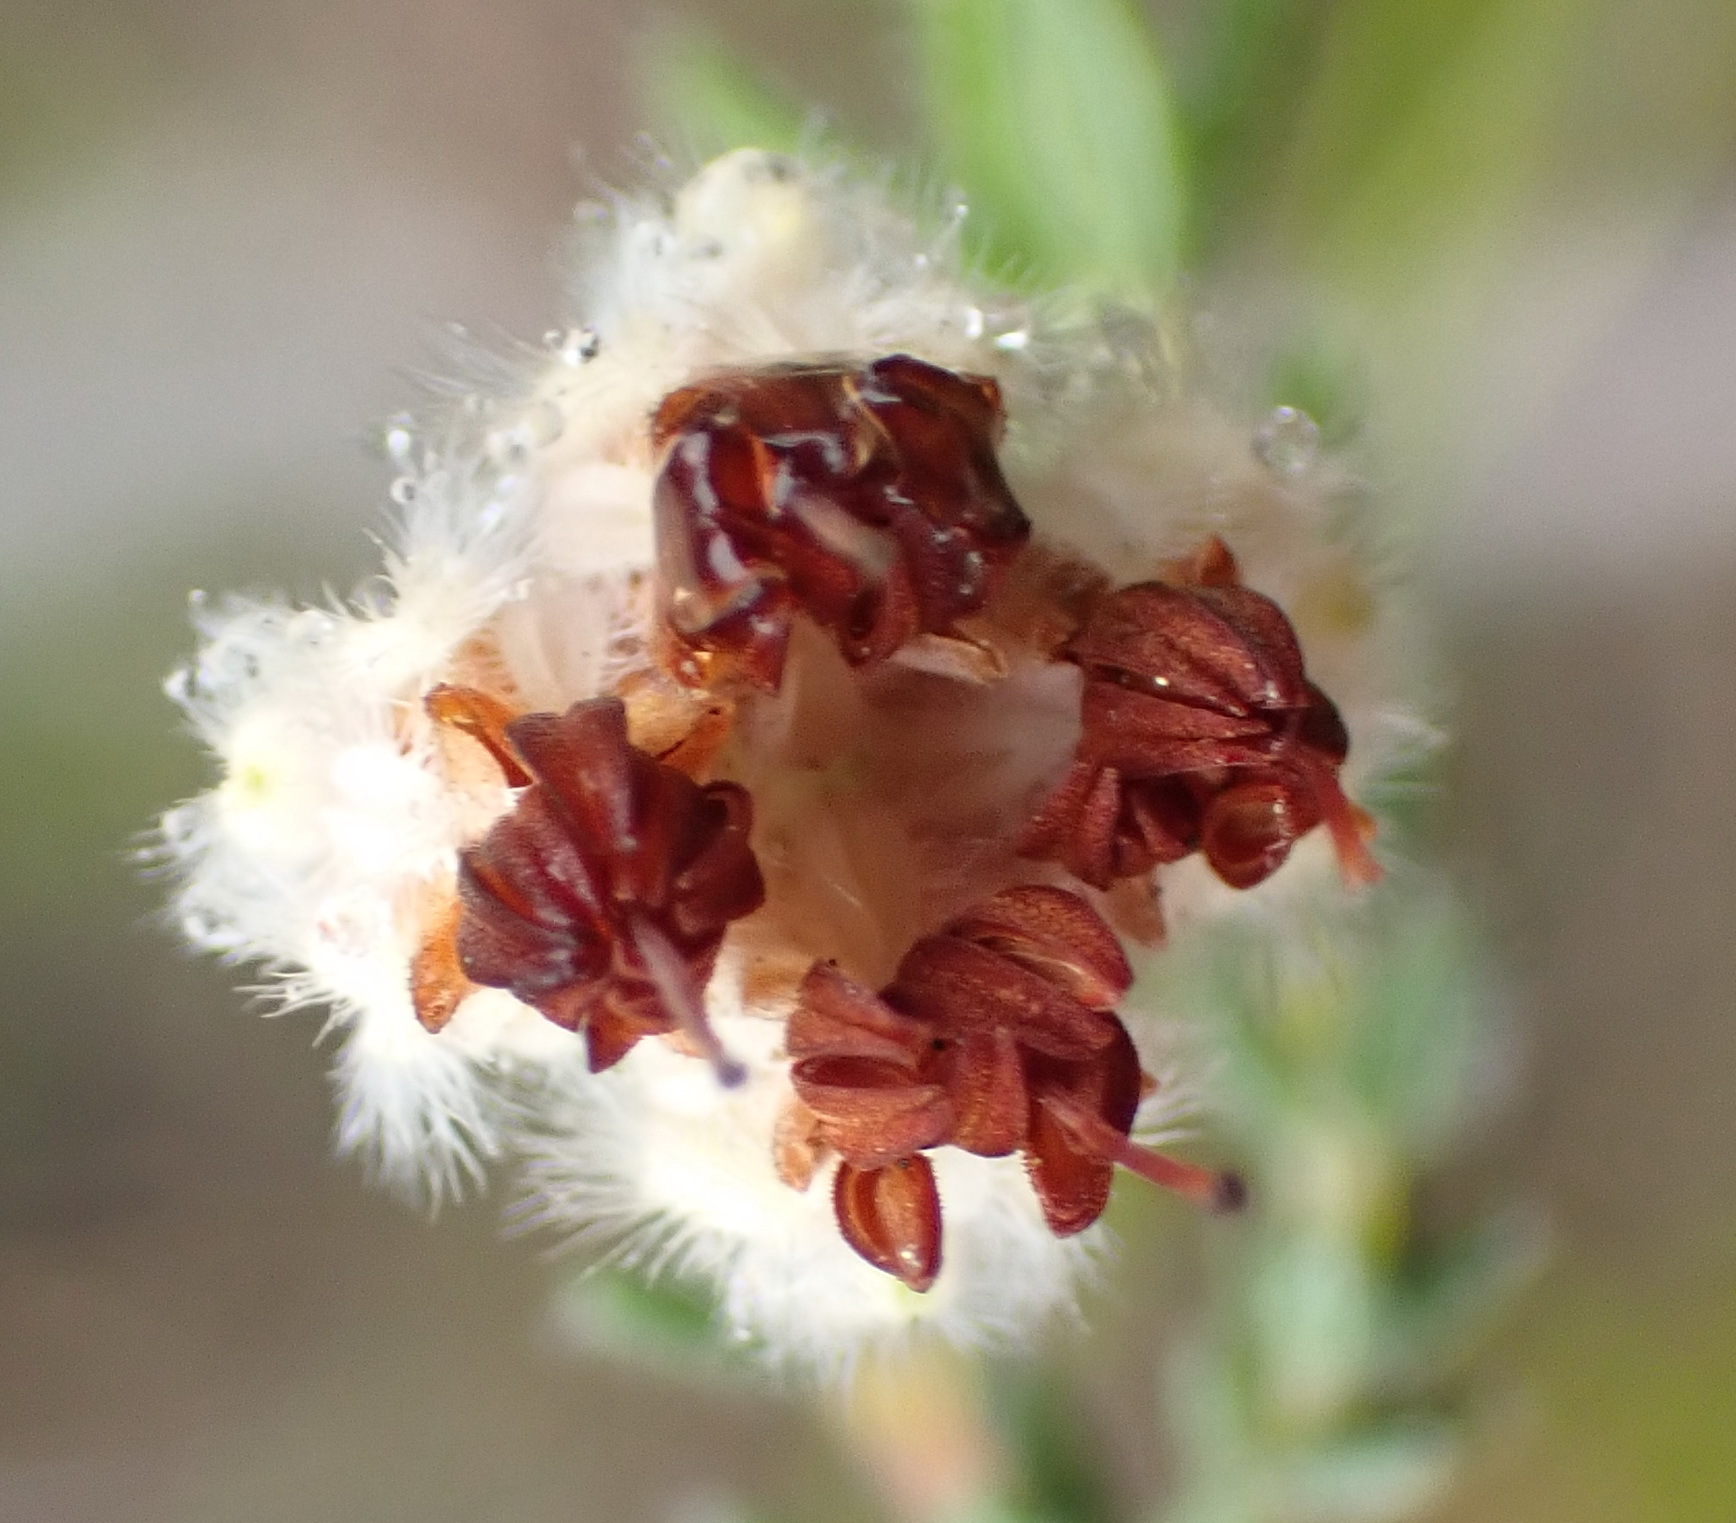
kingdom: Plantae
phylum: Tracheophyta
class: Magnoliopsida
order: Ericales
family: Ericaceae
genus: Erica
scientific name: Erica flaccida
